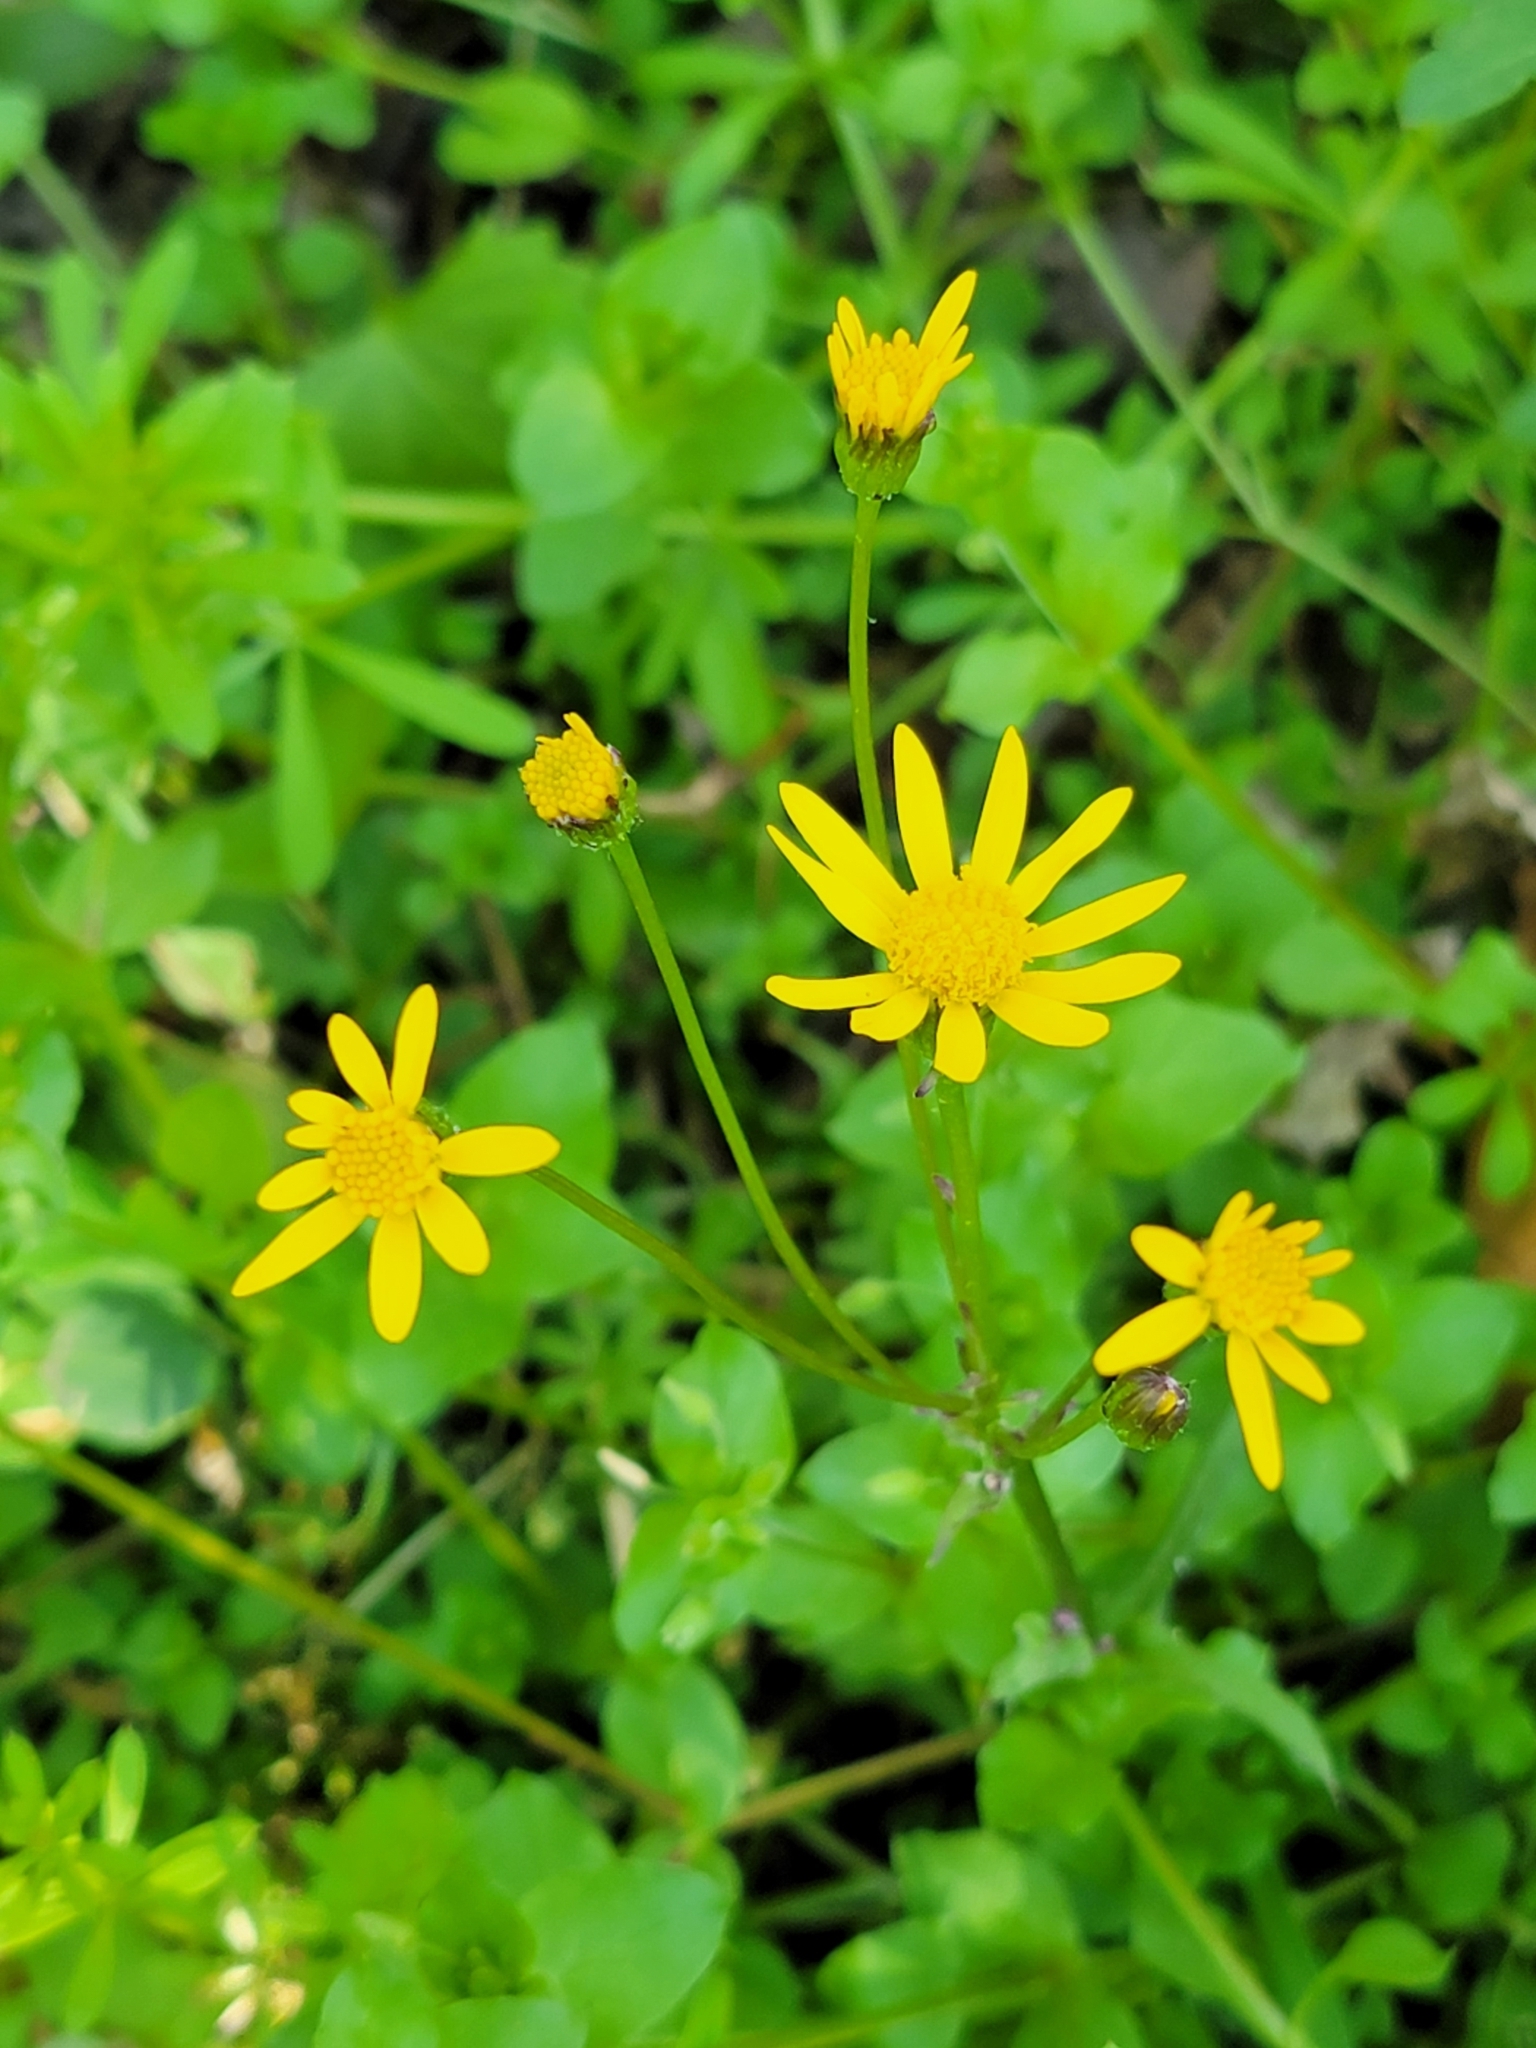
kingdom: Plantae
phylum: Tracheophyta
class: Magnoliopsida
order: Asterales
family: Asteraceae
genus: Packera
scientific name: Packera aurea
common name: Golden groundsel
